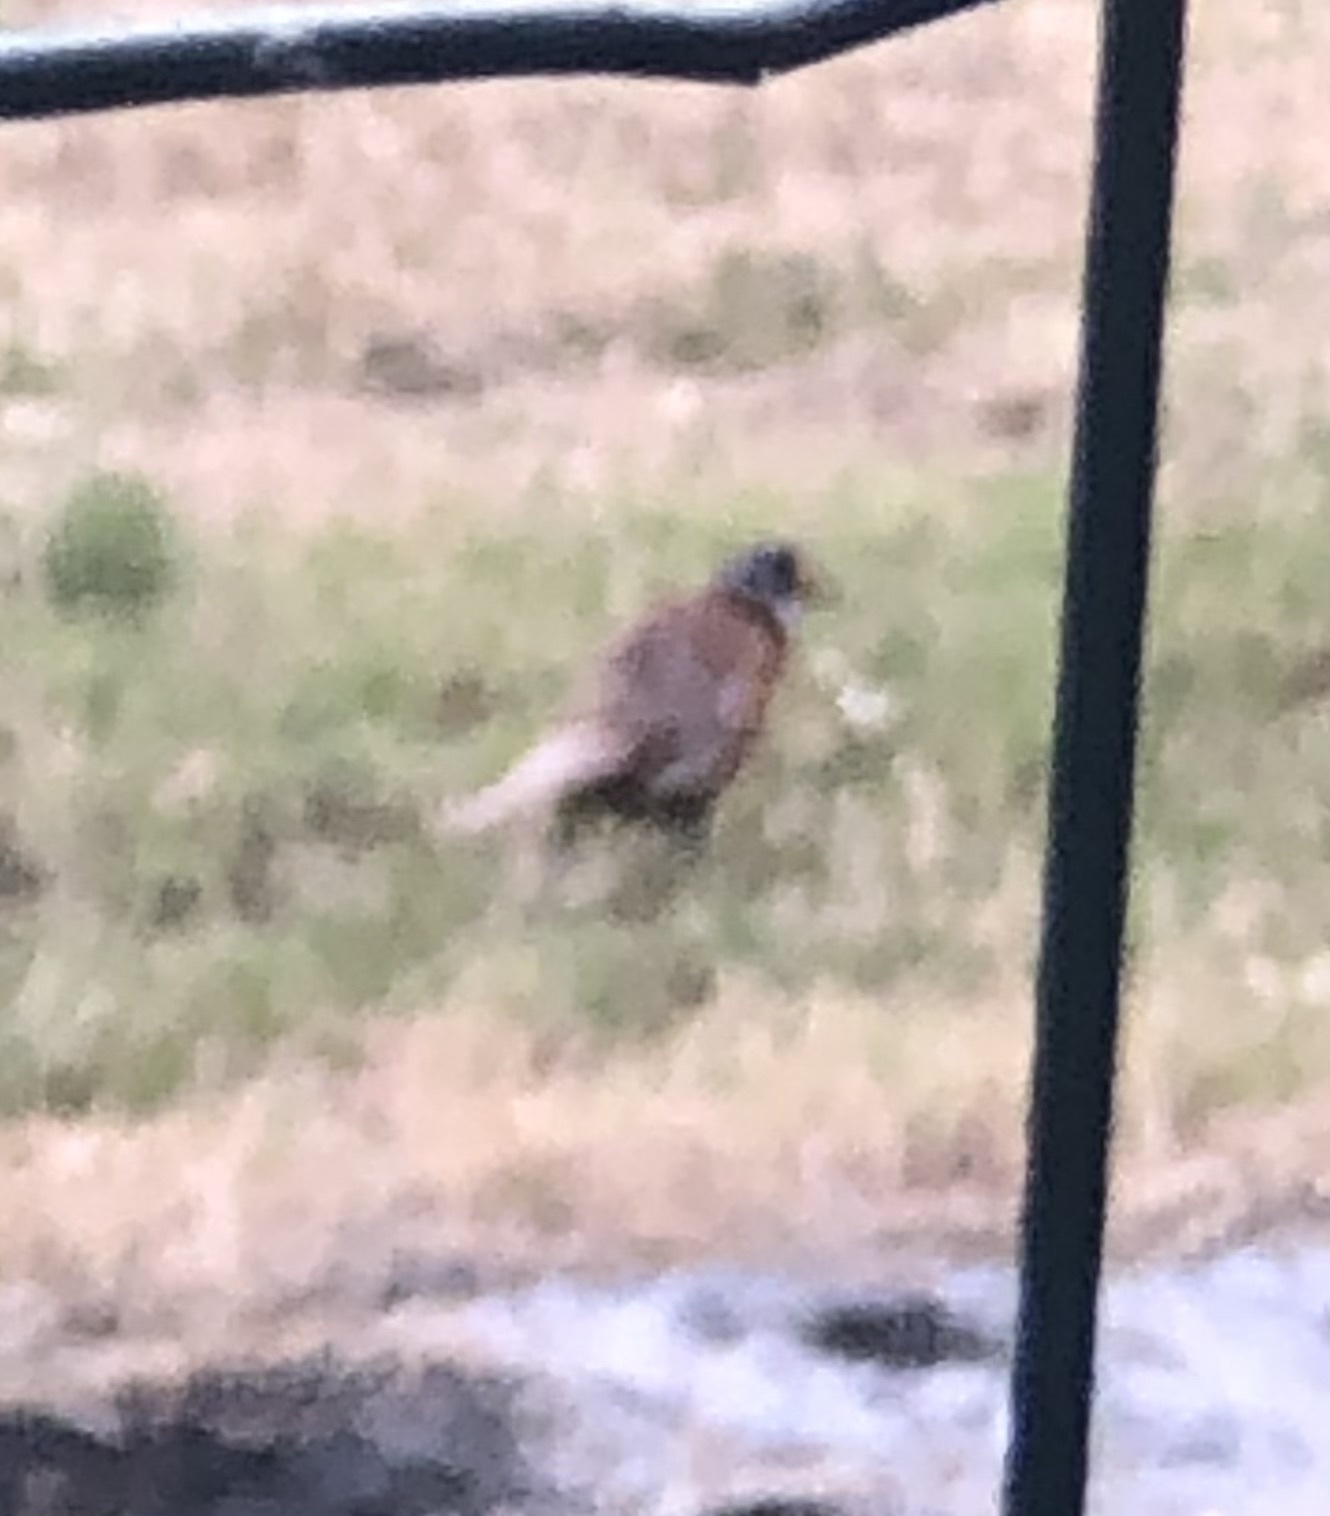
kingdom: Animalia
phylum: Chordata
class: Aves
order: Galliformes
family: Phasianidae
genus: Phasianus
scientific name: Phasianus colchicus
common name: Common pheasant
